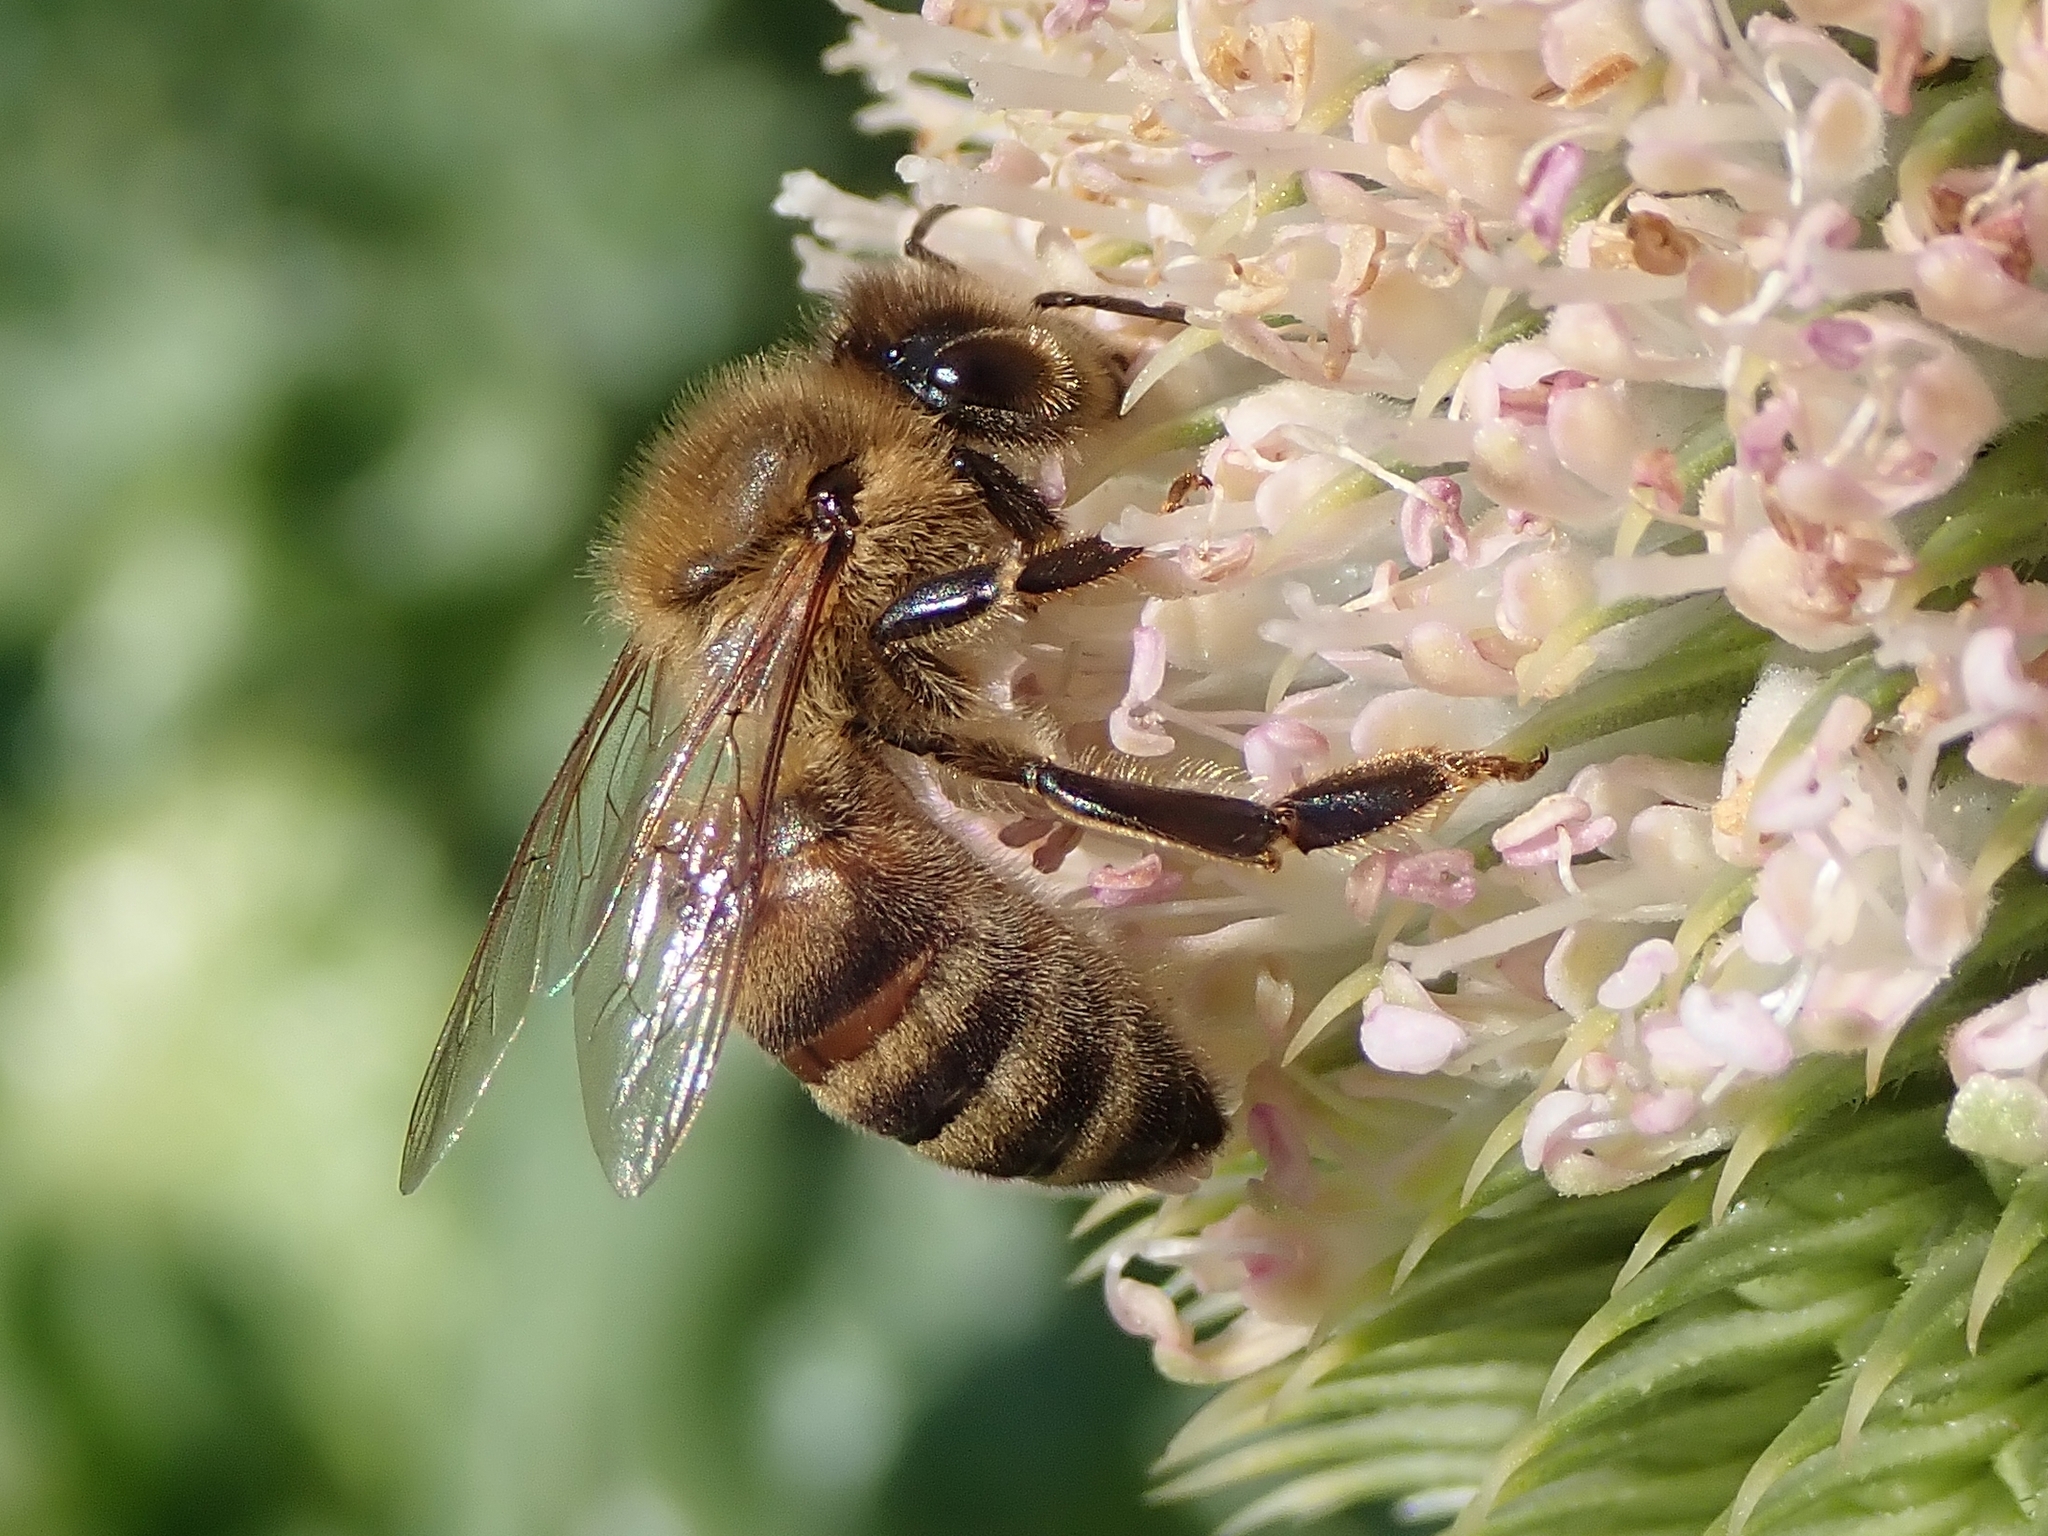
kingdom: Animalia
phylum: Arthropoda
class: Insecta
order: Hymenoptera
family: Apidae
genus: Apis
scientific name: Apis mellifera
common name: Honey bee
